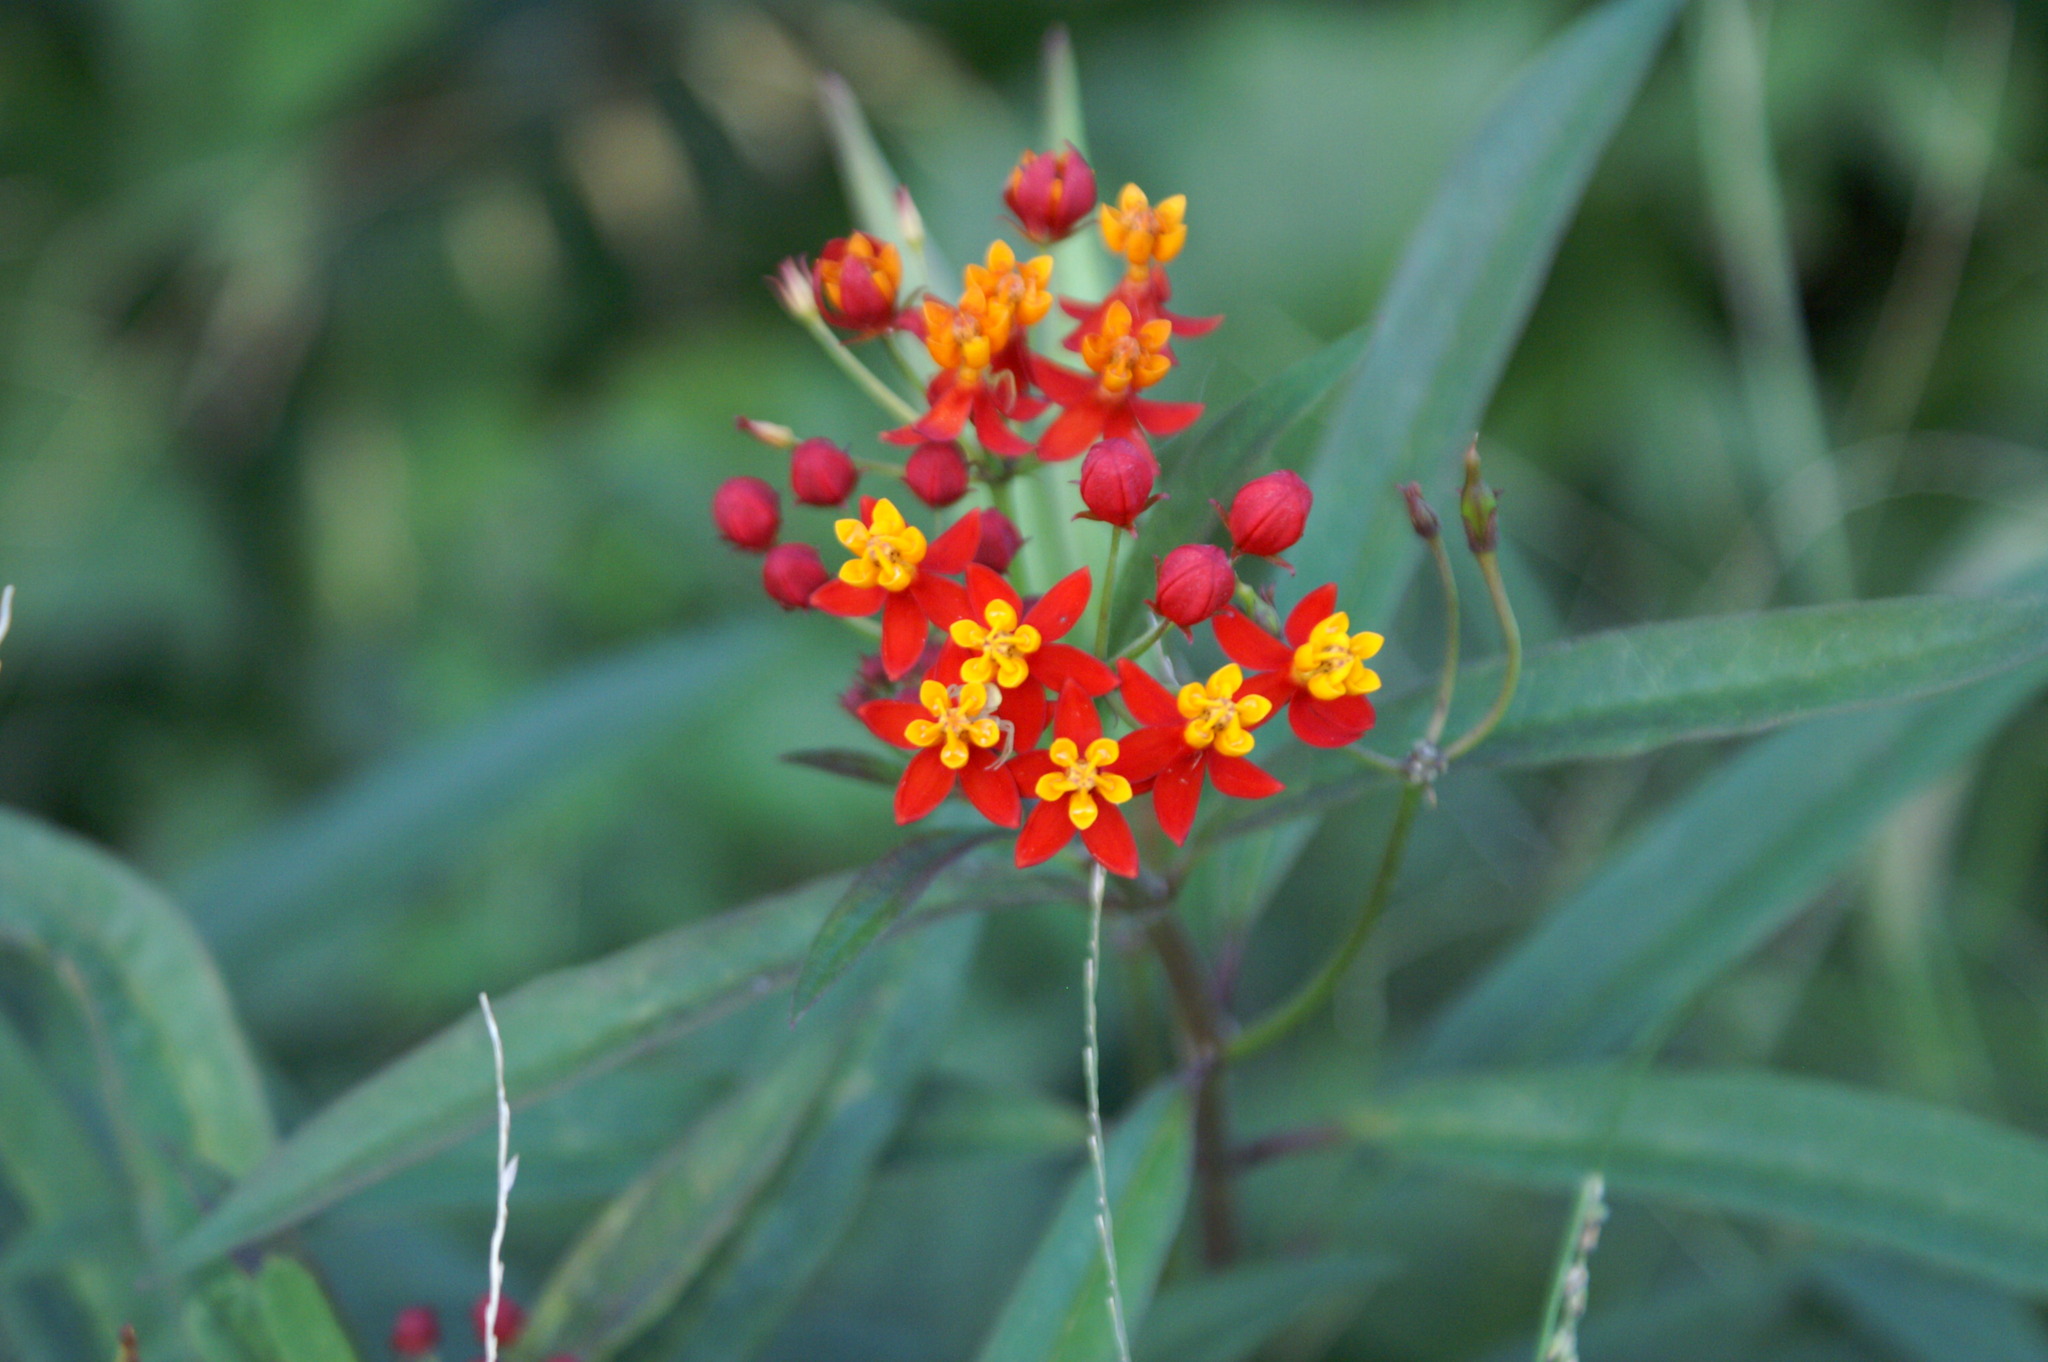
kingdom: Plantae
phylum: Tracheophyta
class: Magnoliopsida
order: Gentianales
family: Apocynaceae
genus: Asclepias
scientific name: Asclepias curassavica
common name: Bloodflower
